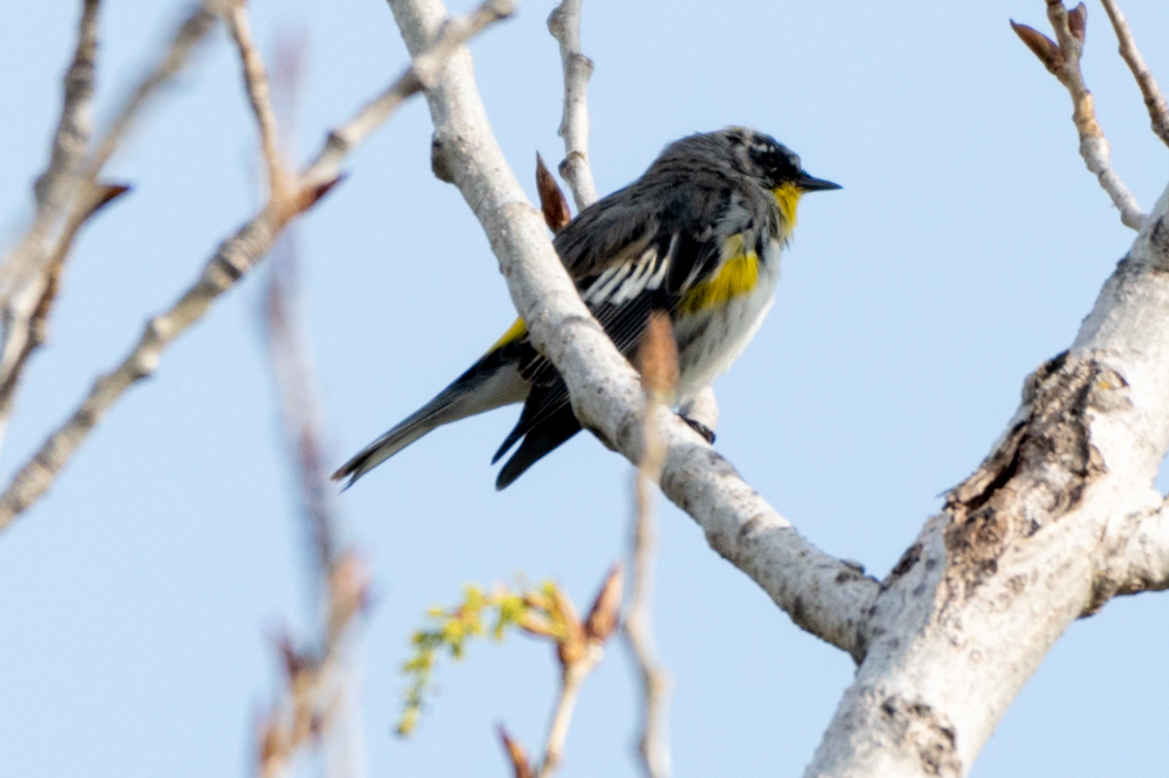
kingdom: Animalia
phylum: Chordata
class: Aves
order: Passeriformes
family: Parulidae
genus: Setophaga
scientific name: Setophaga auduboni
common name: Audubon's warbler
